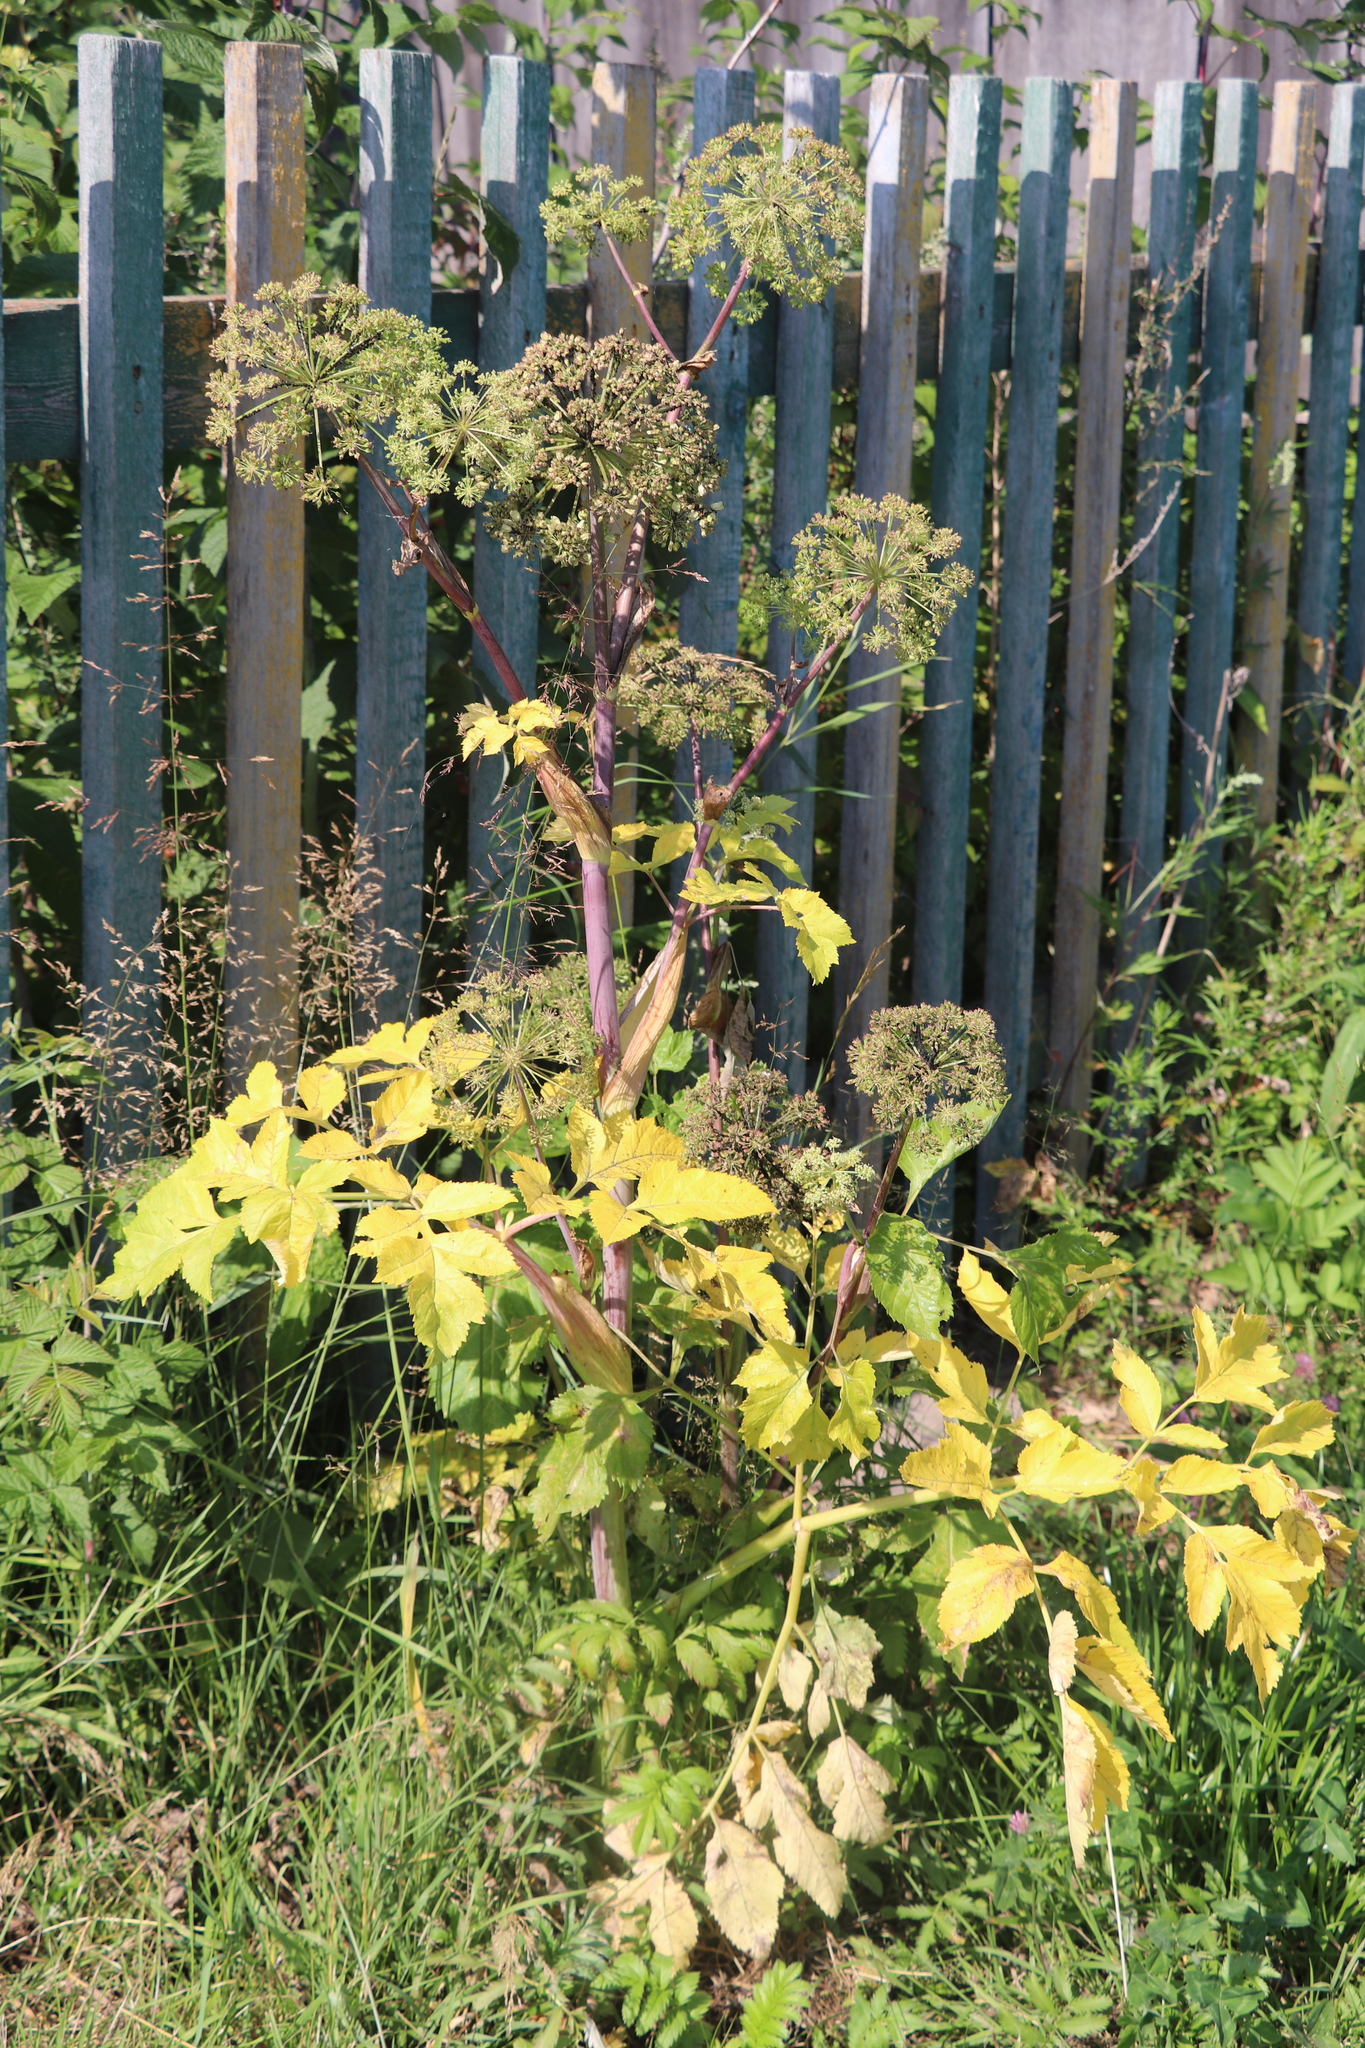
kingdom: Plantae
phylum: Tracheophyta
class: Magnoliopsida
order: Apiales
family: Apiaceae
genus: Angelica
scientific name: Angelica decurrens
